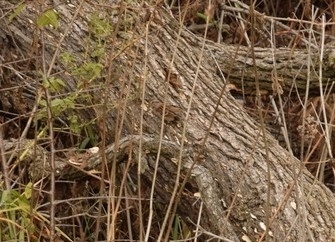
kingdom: Animalia
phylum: Chordata
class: Aves
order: Passeriformes
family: Passerellidae
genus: Spizelloides
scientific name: Spizelloides arborea
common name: American tree sparrow
